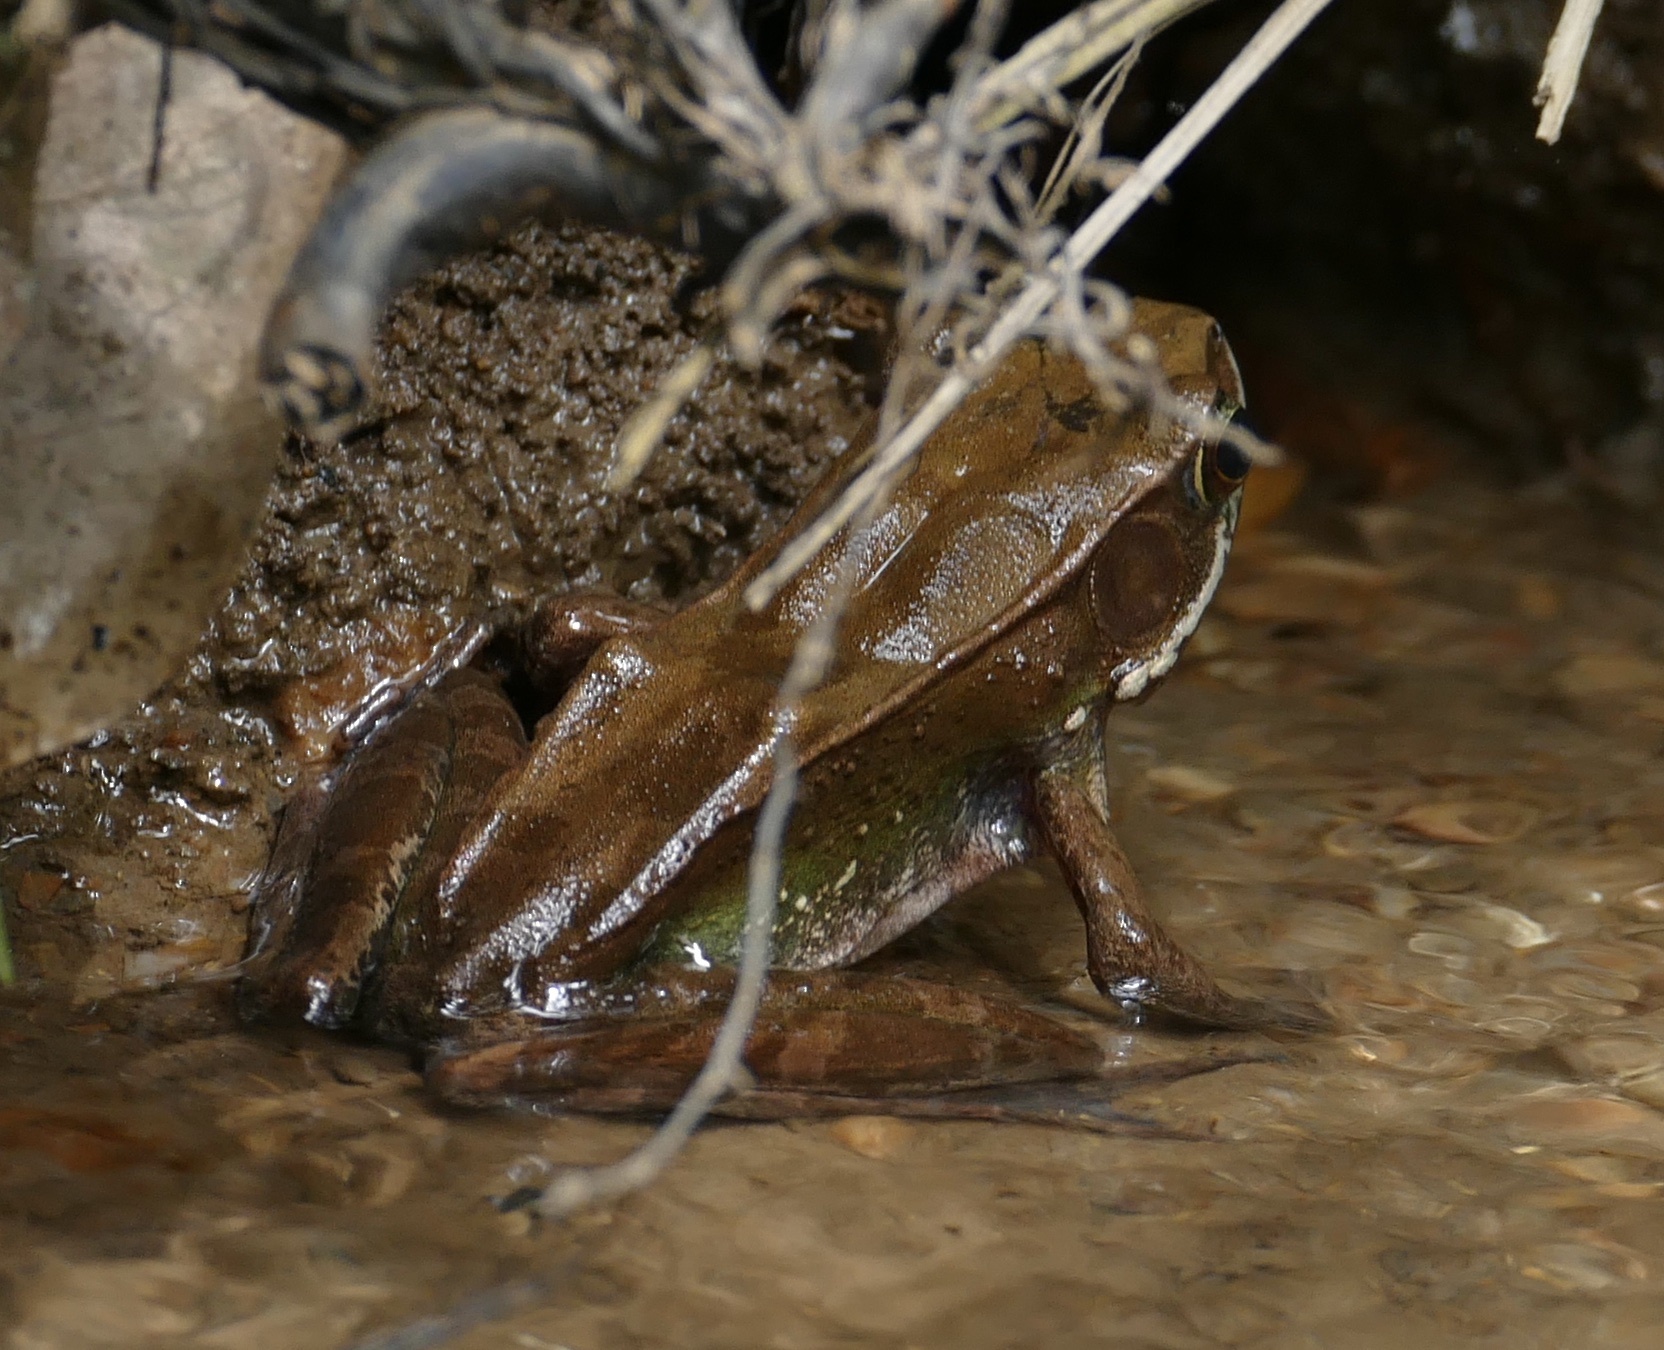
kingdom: Animalia
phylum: Chordata
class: Amphibia
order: Anura
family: Ranidae
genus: Amnirana
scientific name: Amnirana parva
